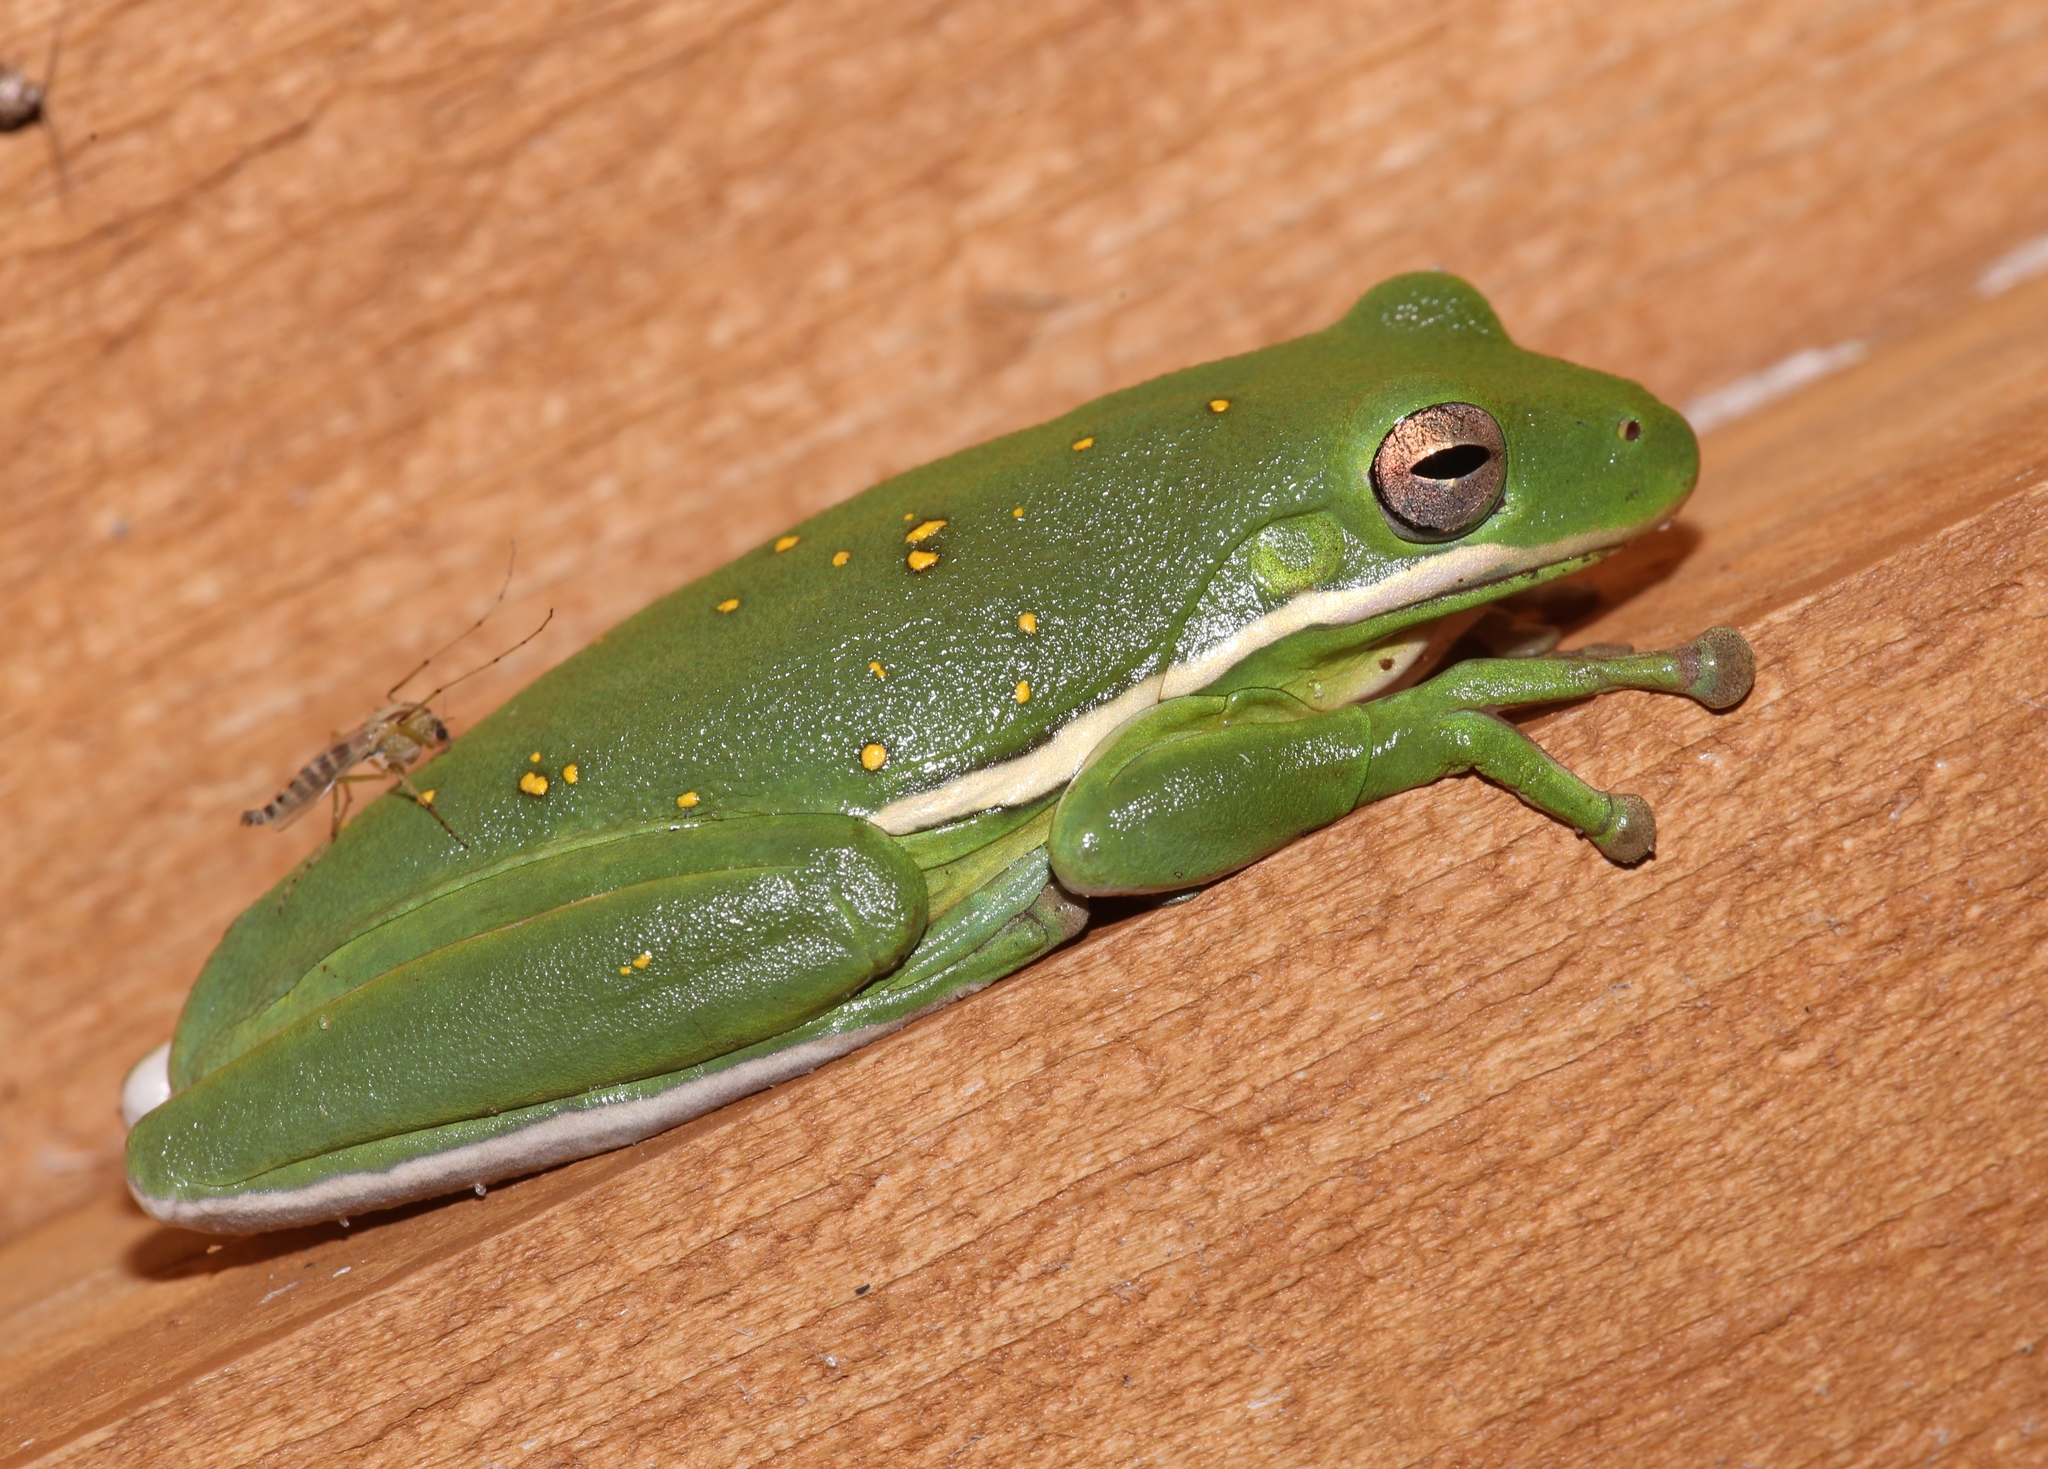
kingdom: Animalia
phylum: Chordata
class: Amphibia
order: Anura
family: Hylidae
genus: Dryophytes
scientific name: Dryophytes cinereus
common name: Green treefrog
